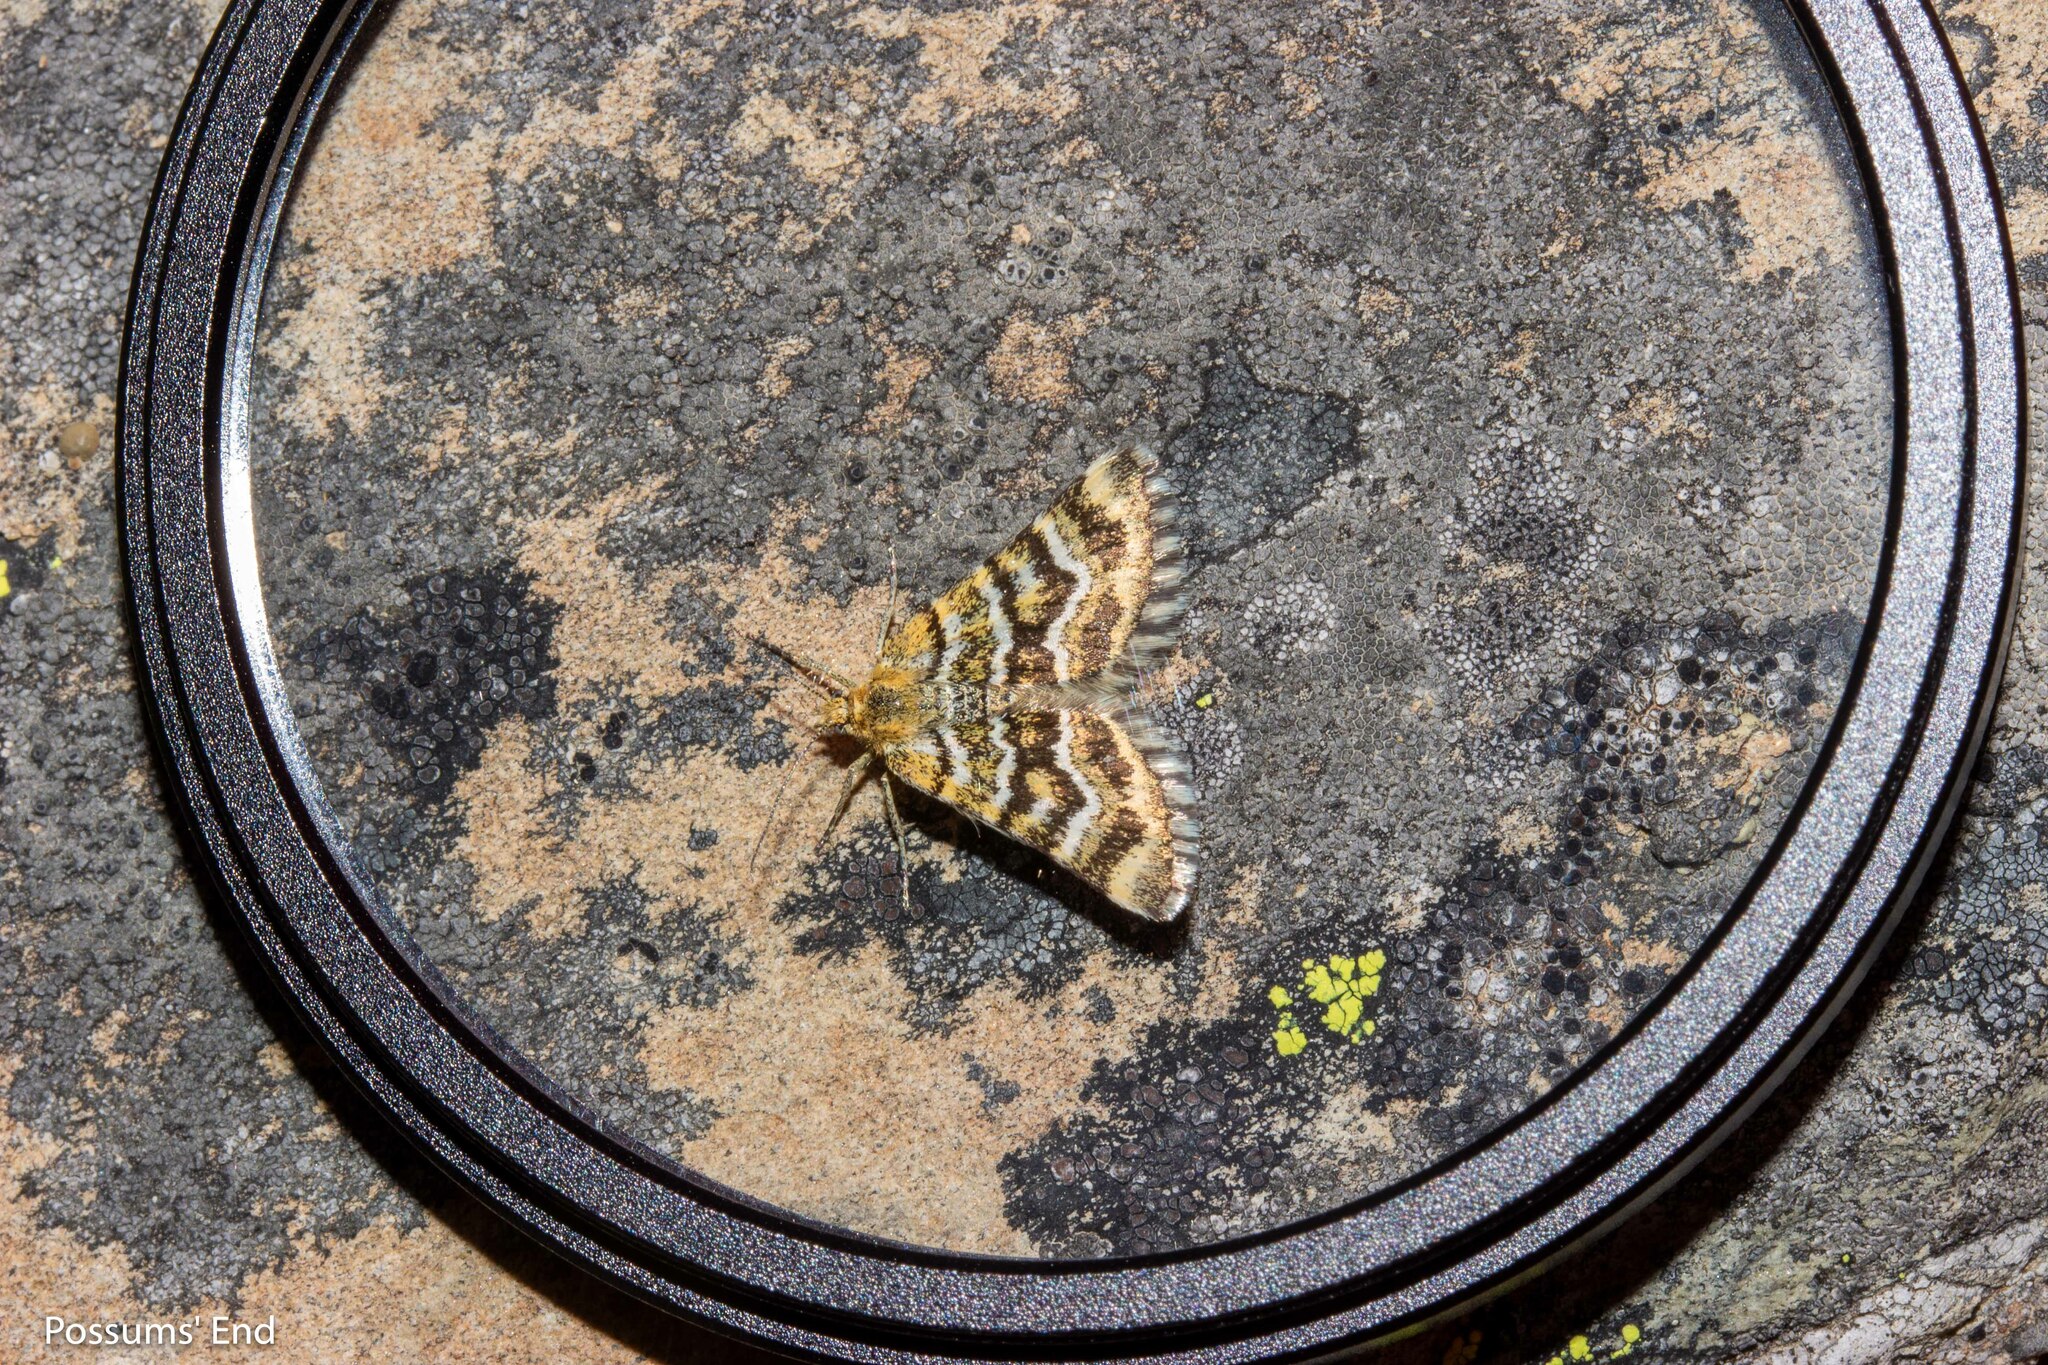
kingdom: Animalia
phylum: Arthropoda
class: Insecta
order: Lepidoptera
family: Geometridae
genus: Notoreas
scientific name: Notoreas paradelpha
